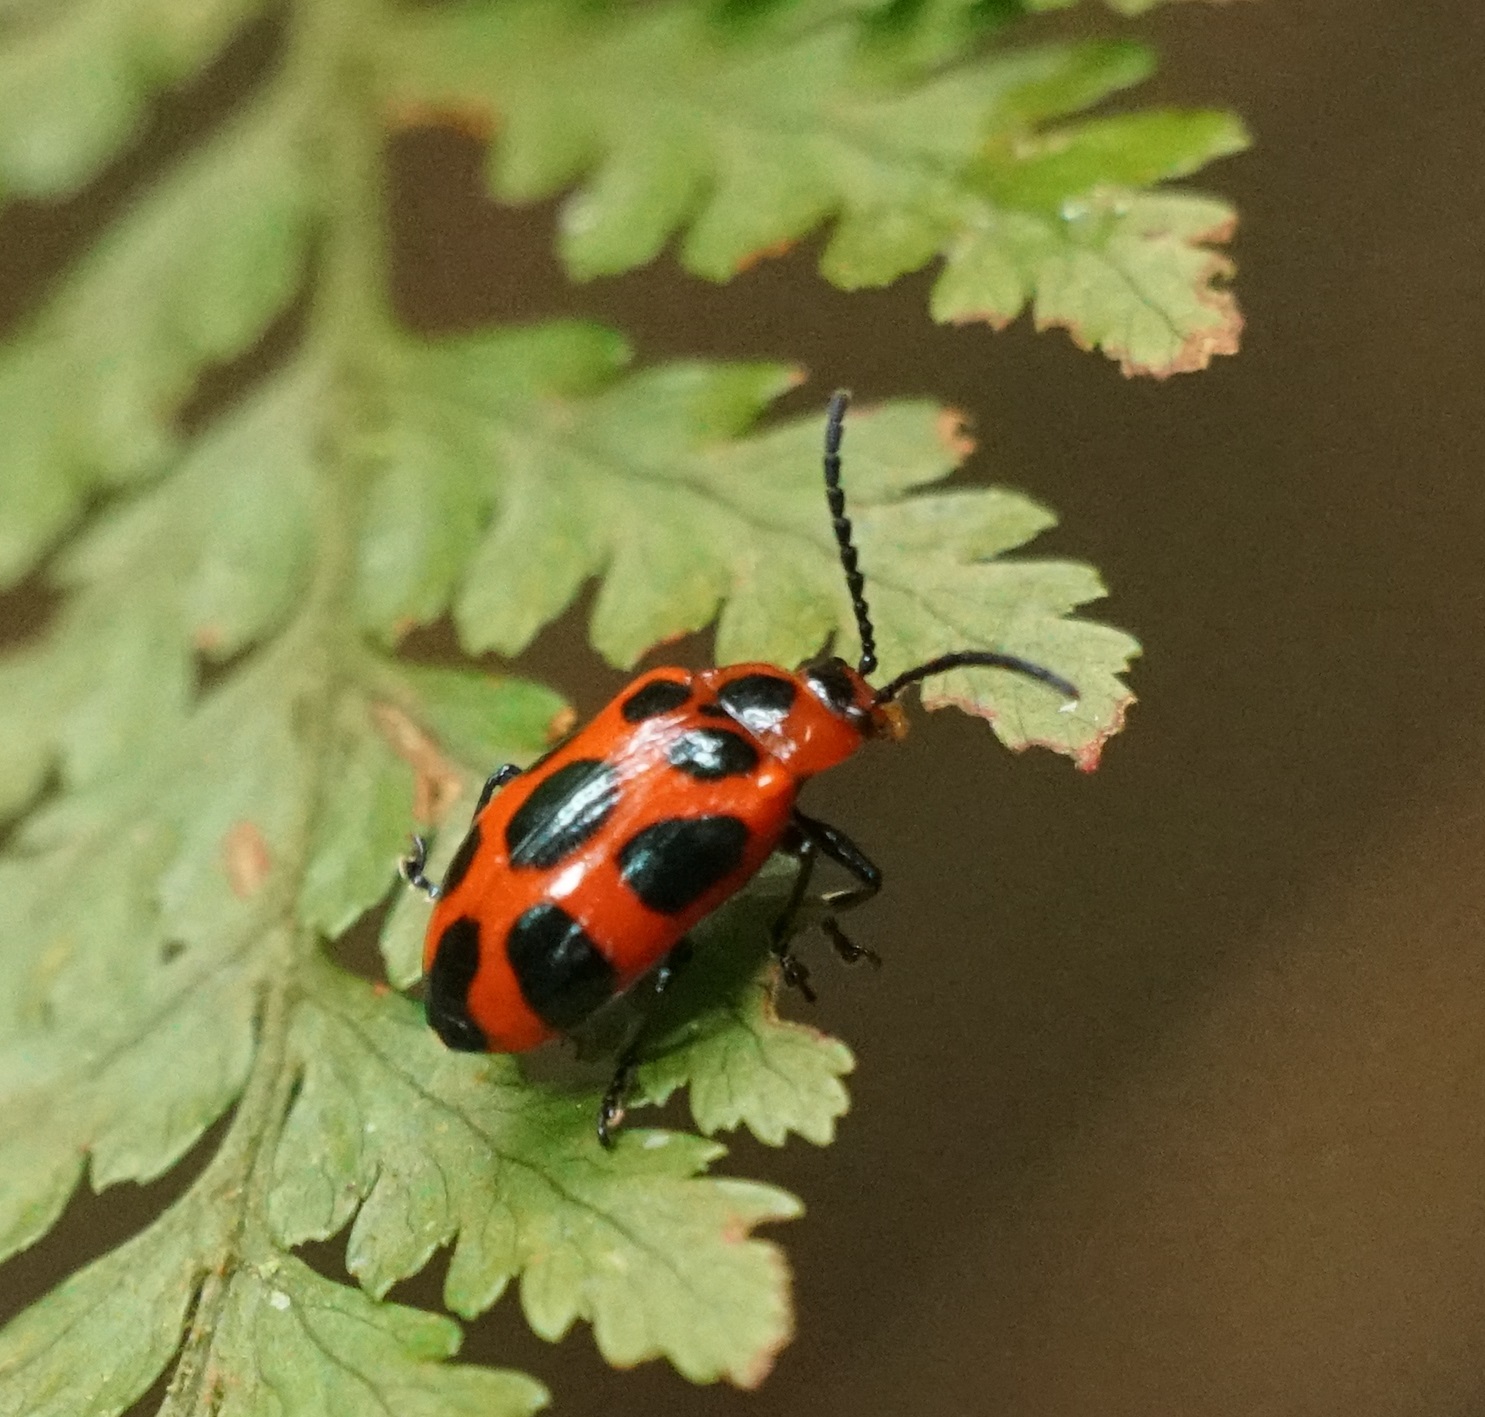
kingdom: Animalia
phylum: Arthropoda
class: Insecta
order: Coleoptera
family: Chrysomelidae
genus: Phyllocharis
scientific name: Phyllocharis
